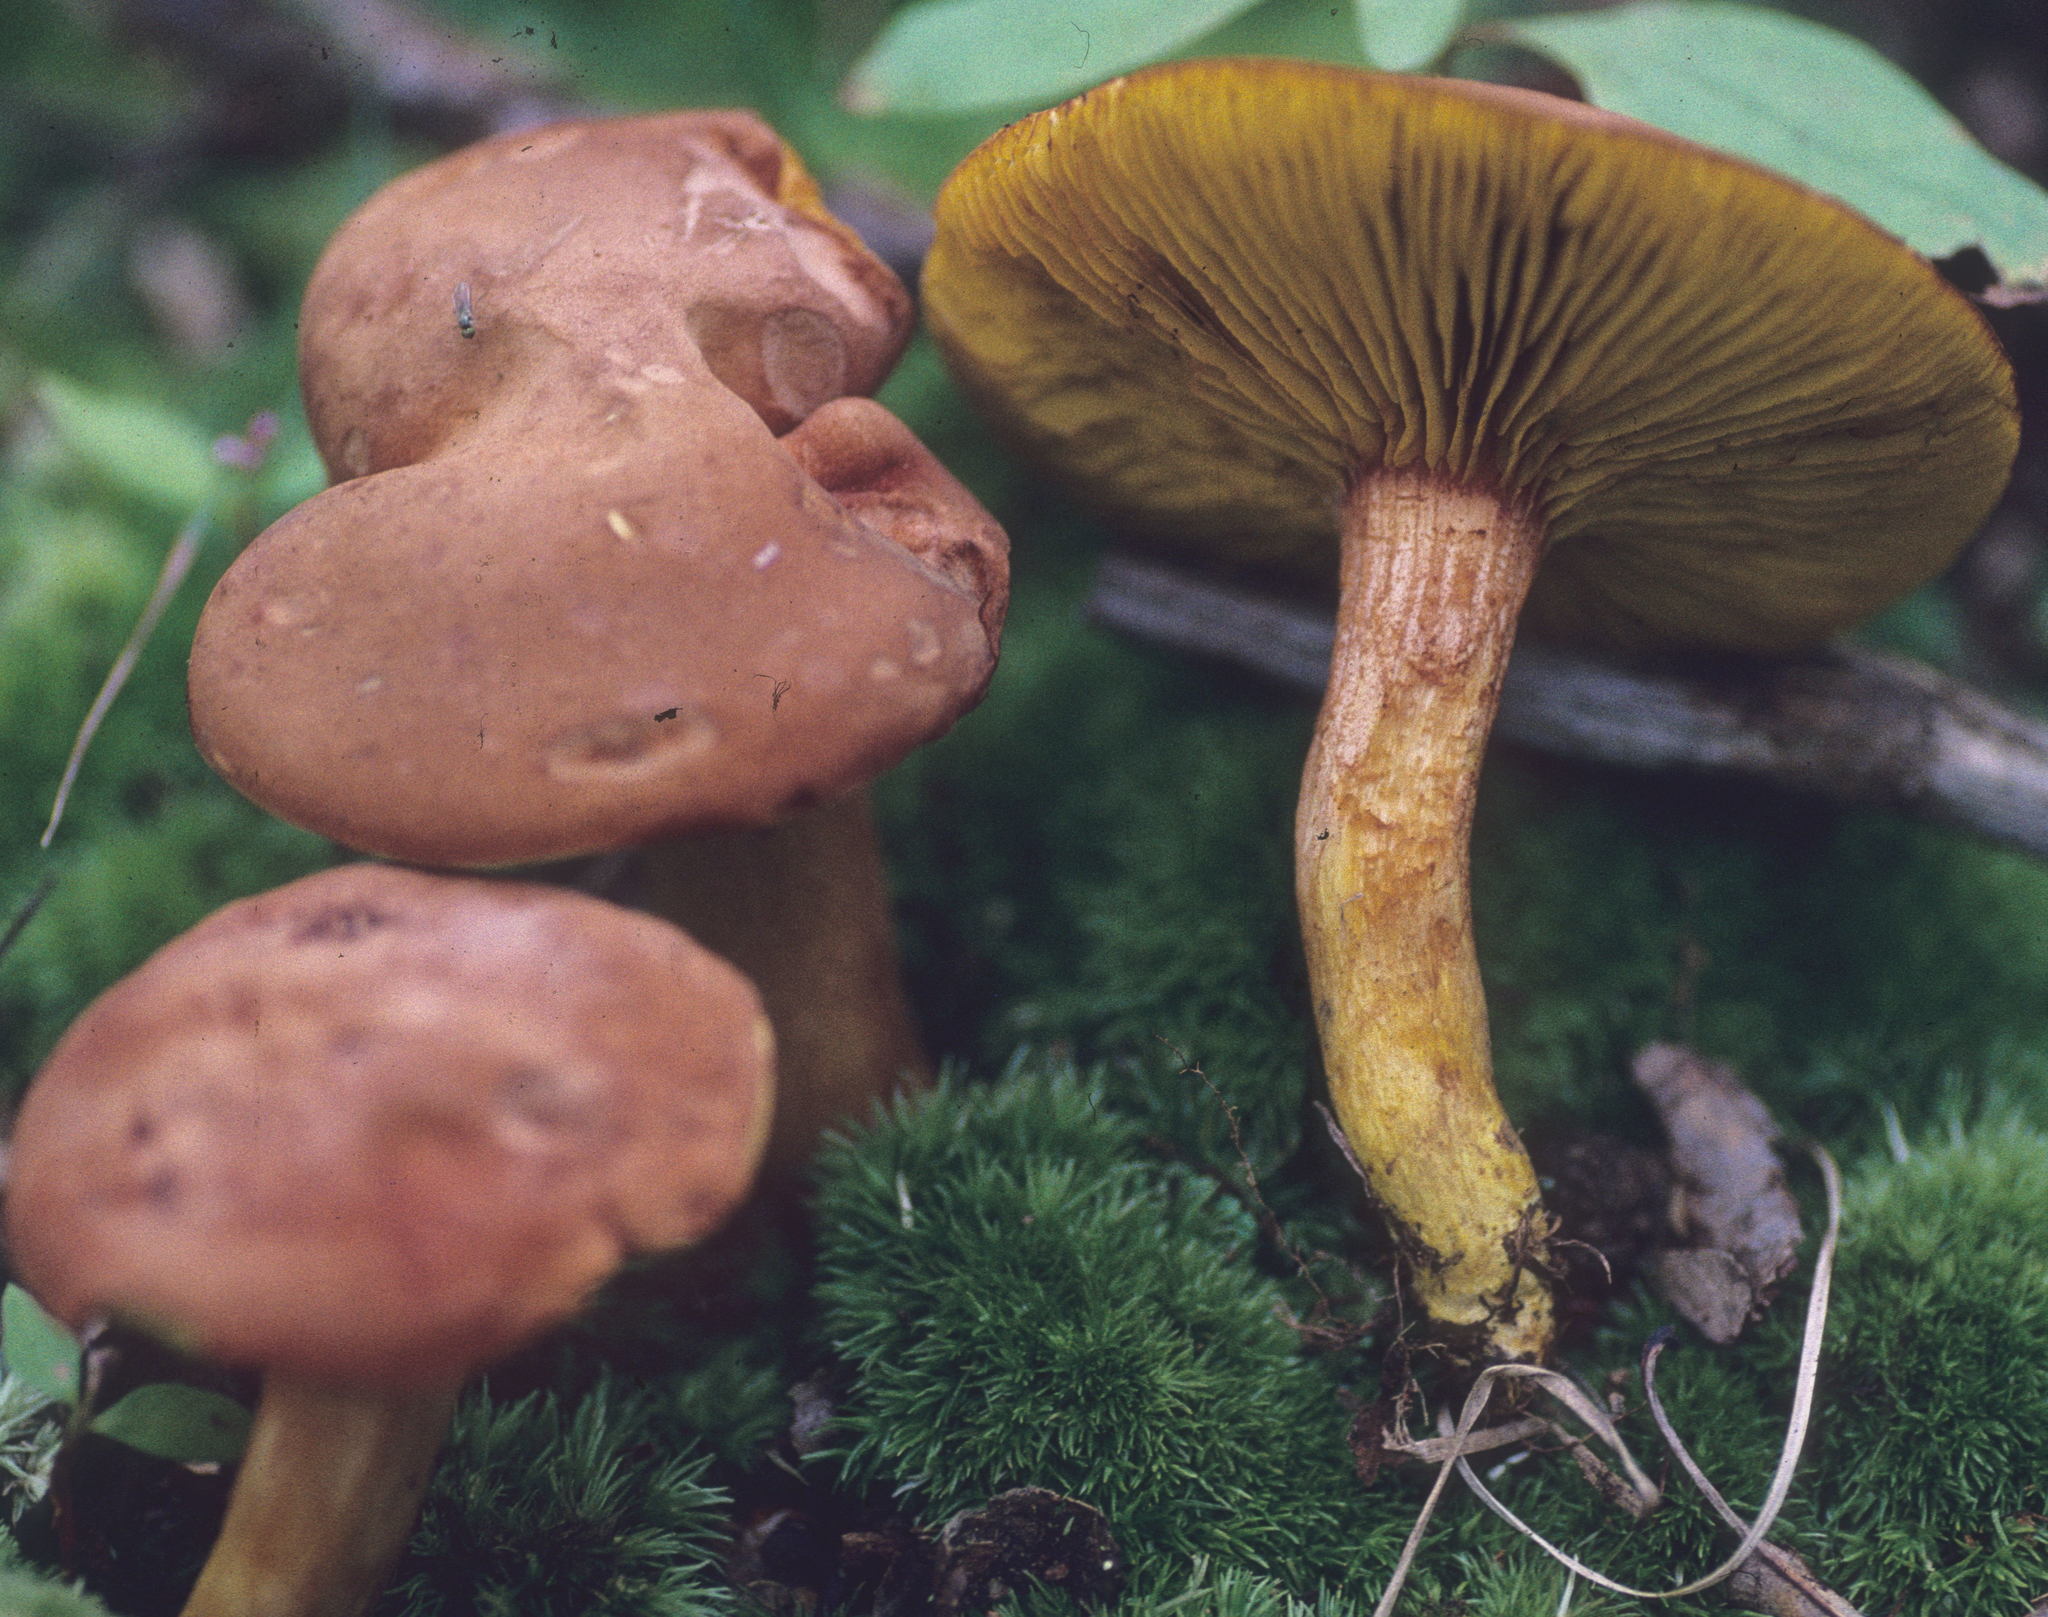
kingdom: Fungi
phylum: Basidiomycota
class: Agaricomycetes
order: Boletales
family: Boletaceae
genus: Phylloporus
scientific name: Phylloporus rhodoxanthus
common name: Golden gilled bolete
